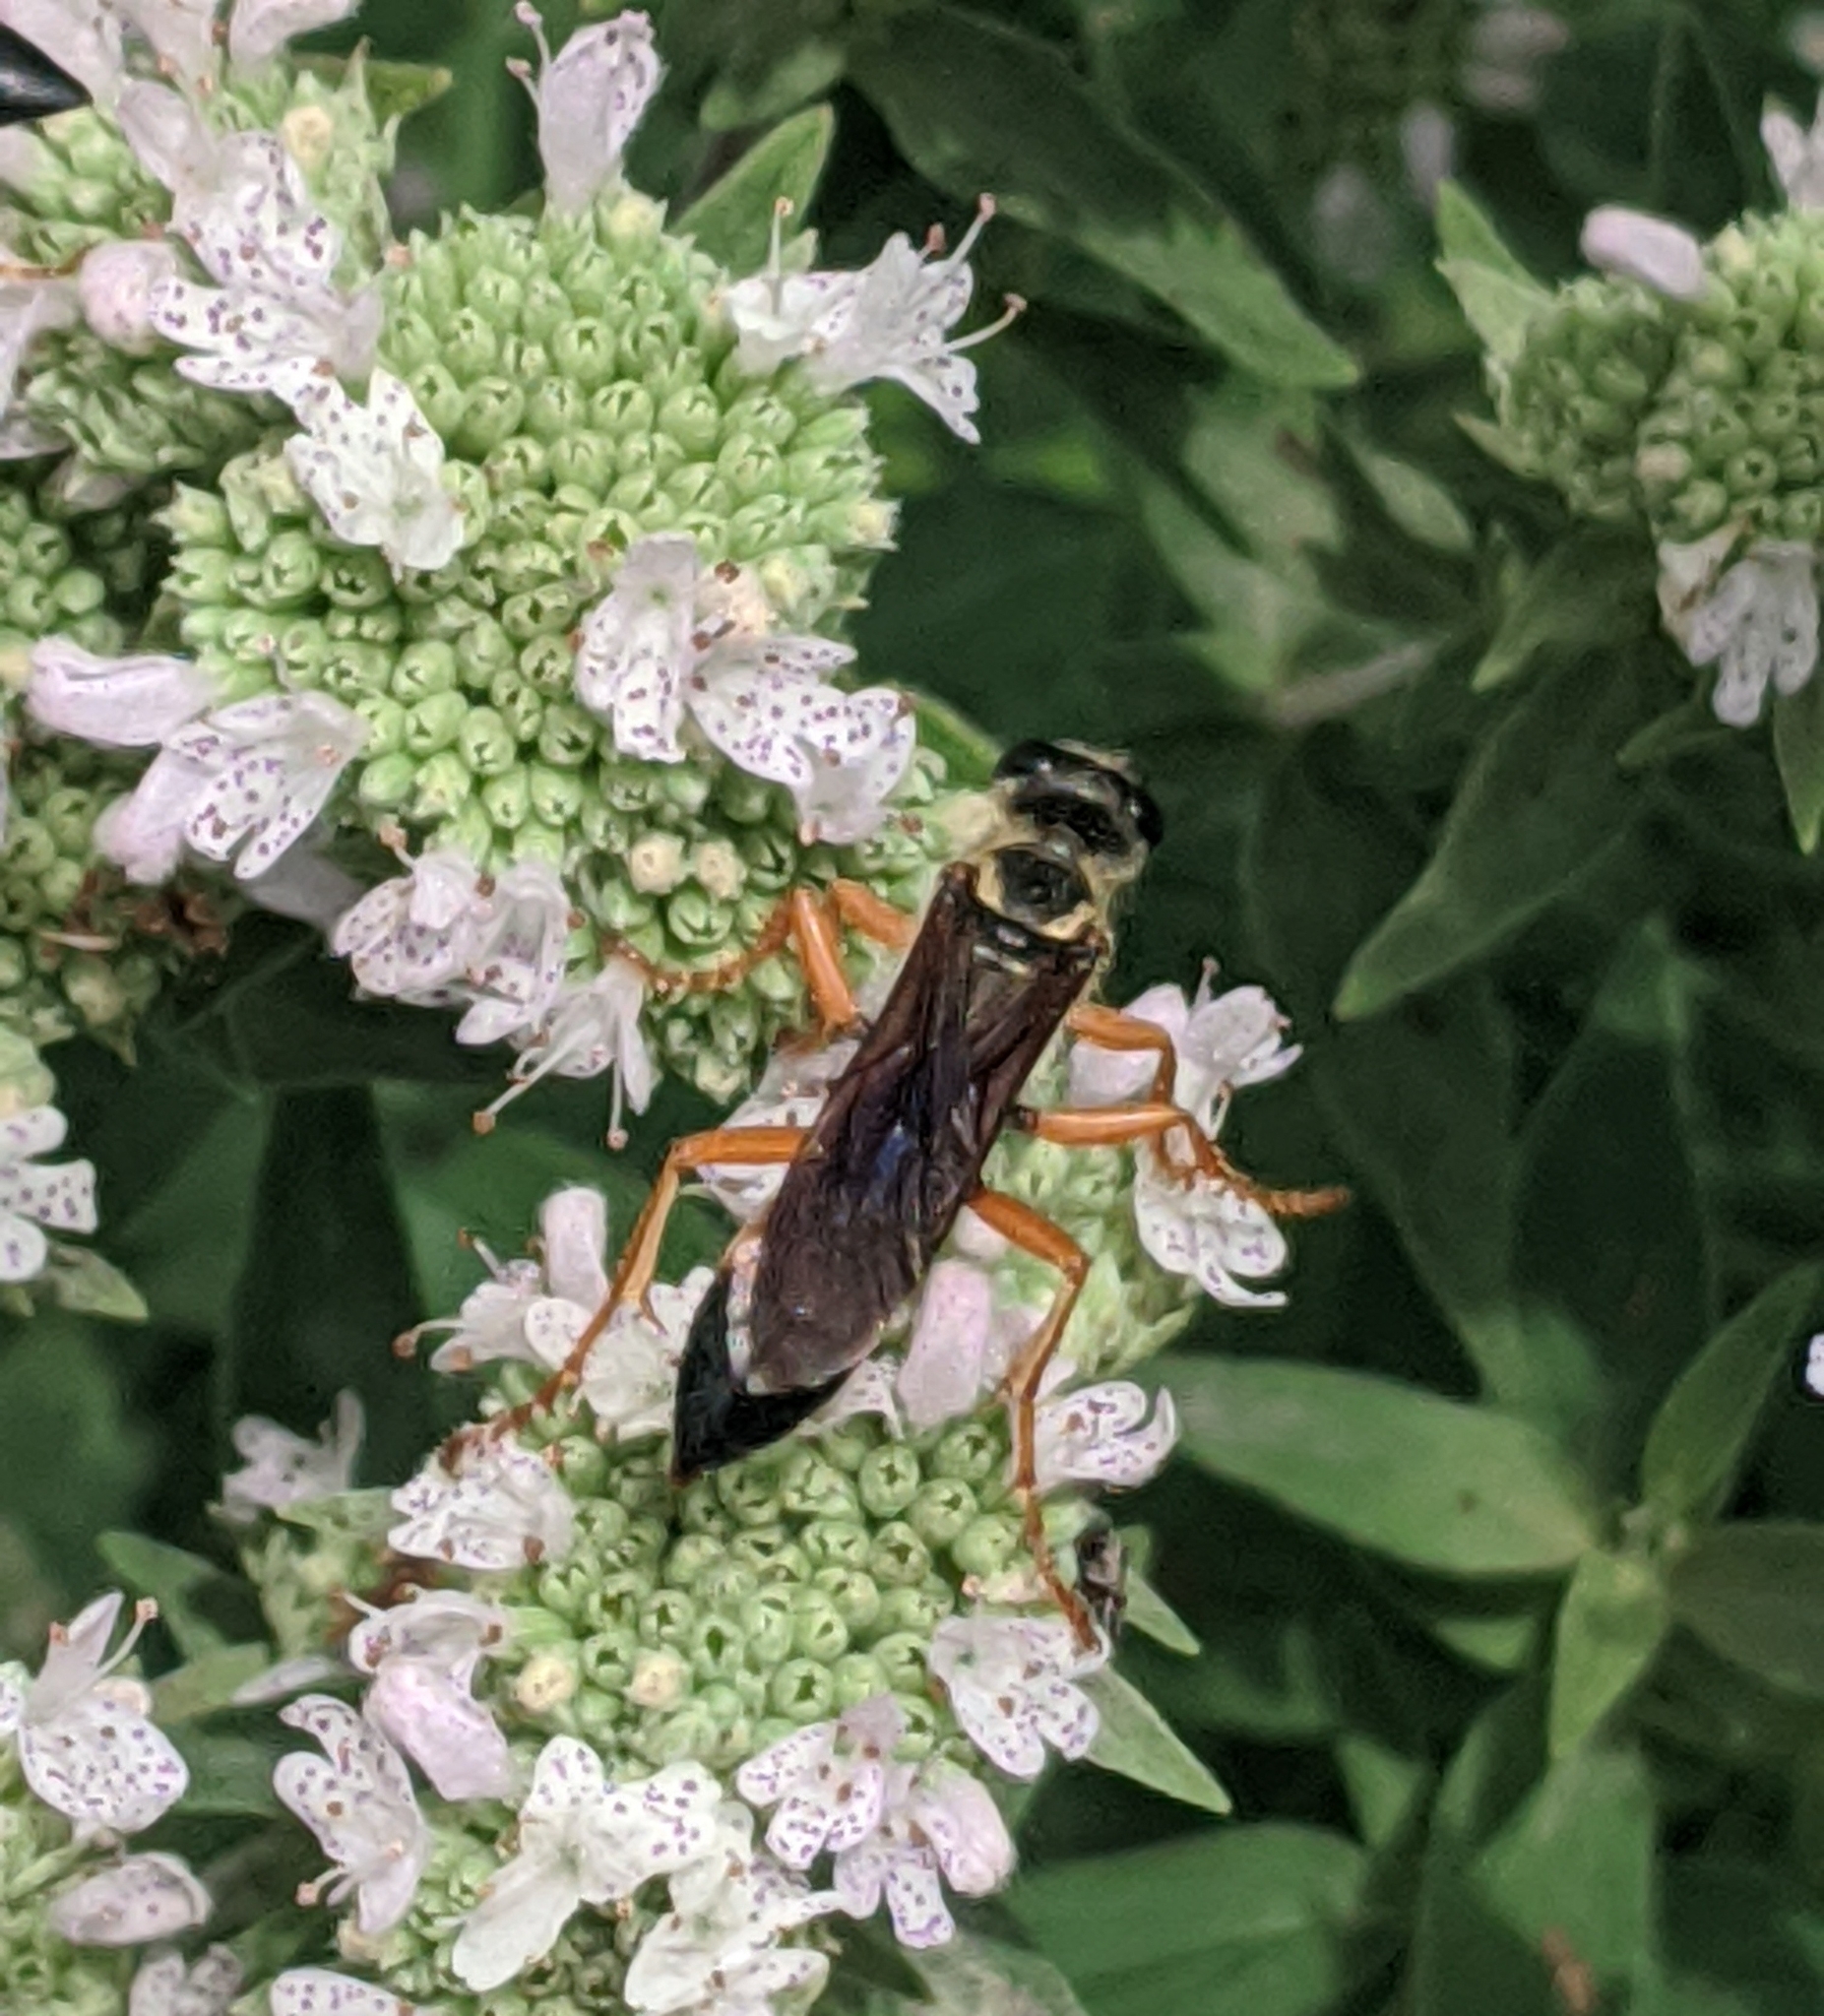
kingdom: Animalia
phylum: Arthropoda
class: Insecta
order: Hymenoptera
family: Sphecidae
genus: Sphex
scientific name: Sphex ichneumoneus
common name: Great golden digger wasp
